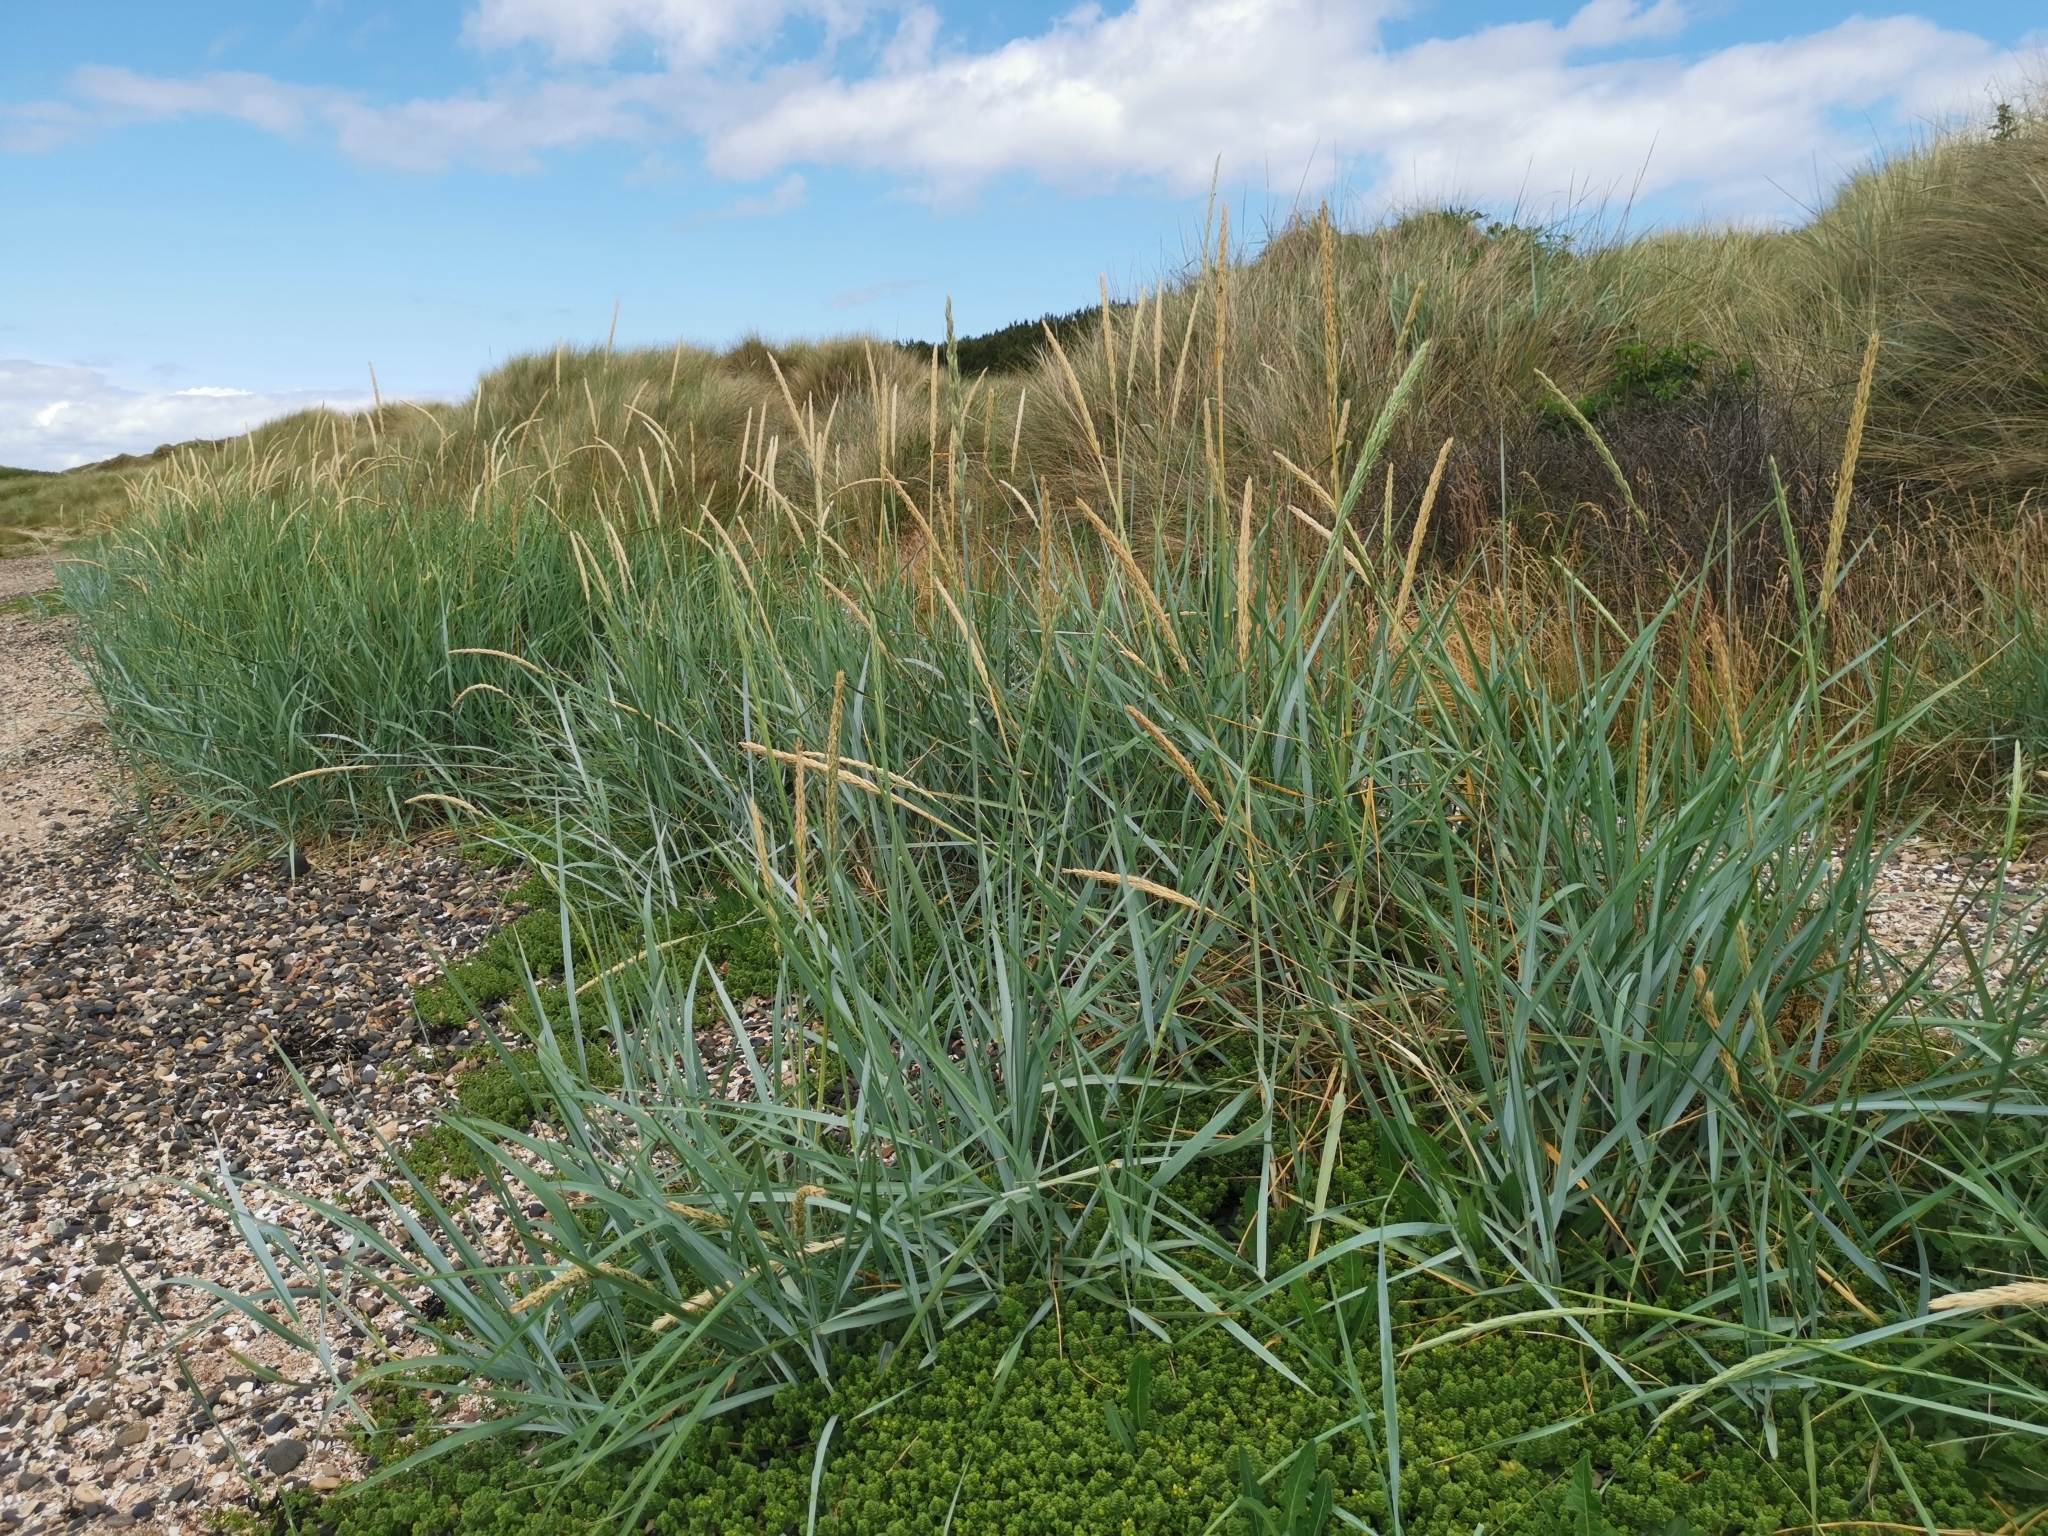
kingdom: Plantae
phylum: Tracheophyta
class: Liliopsida
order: Poales
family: Poaceae
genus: Calamagrostis
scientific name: Calamagrostis arenaria
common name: European beachgrass
